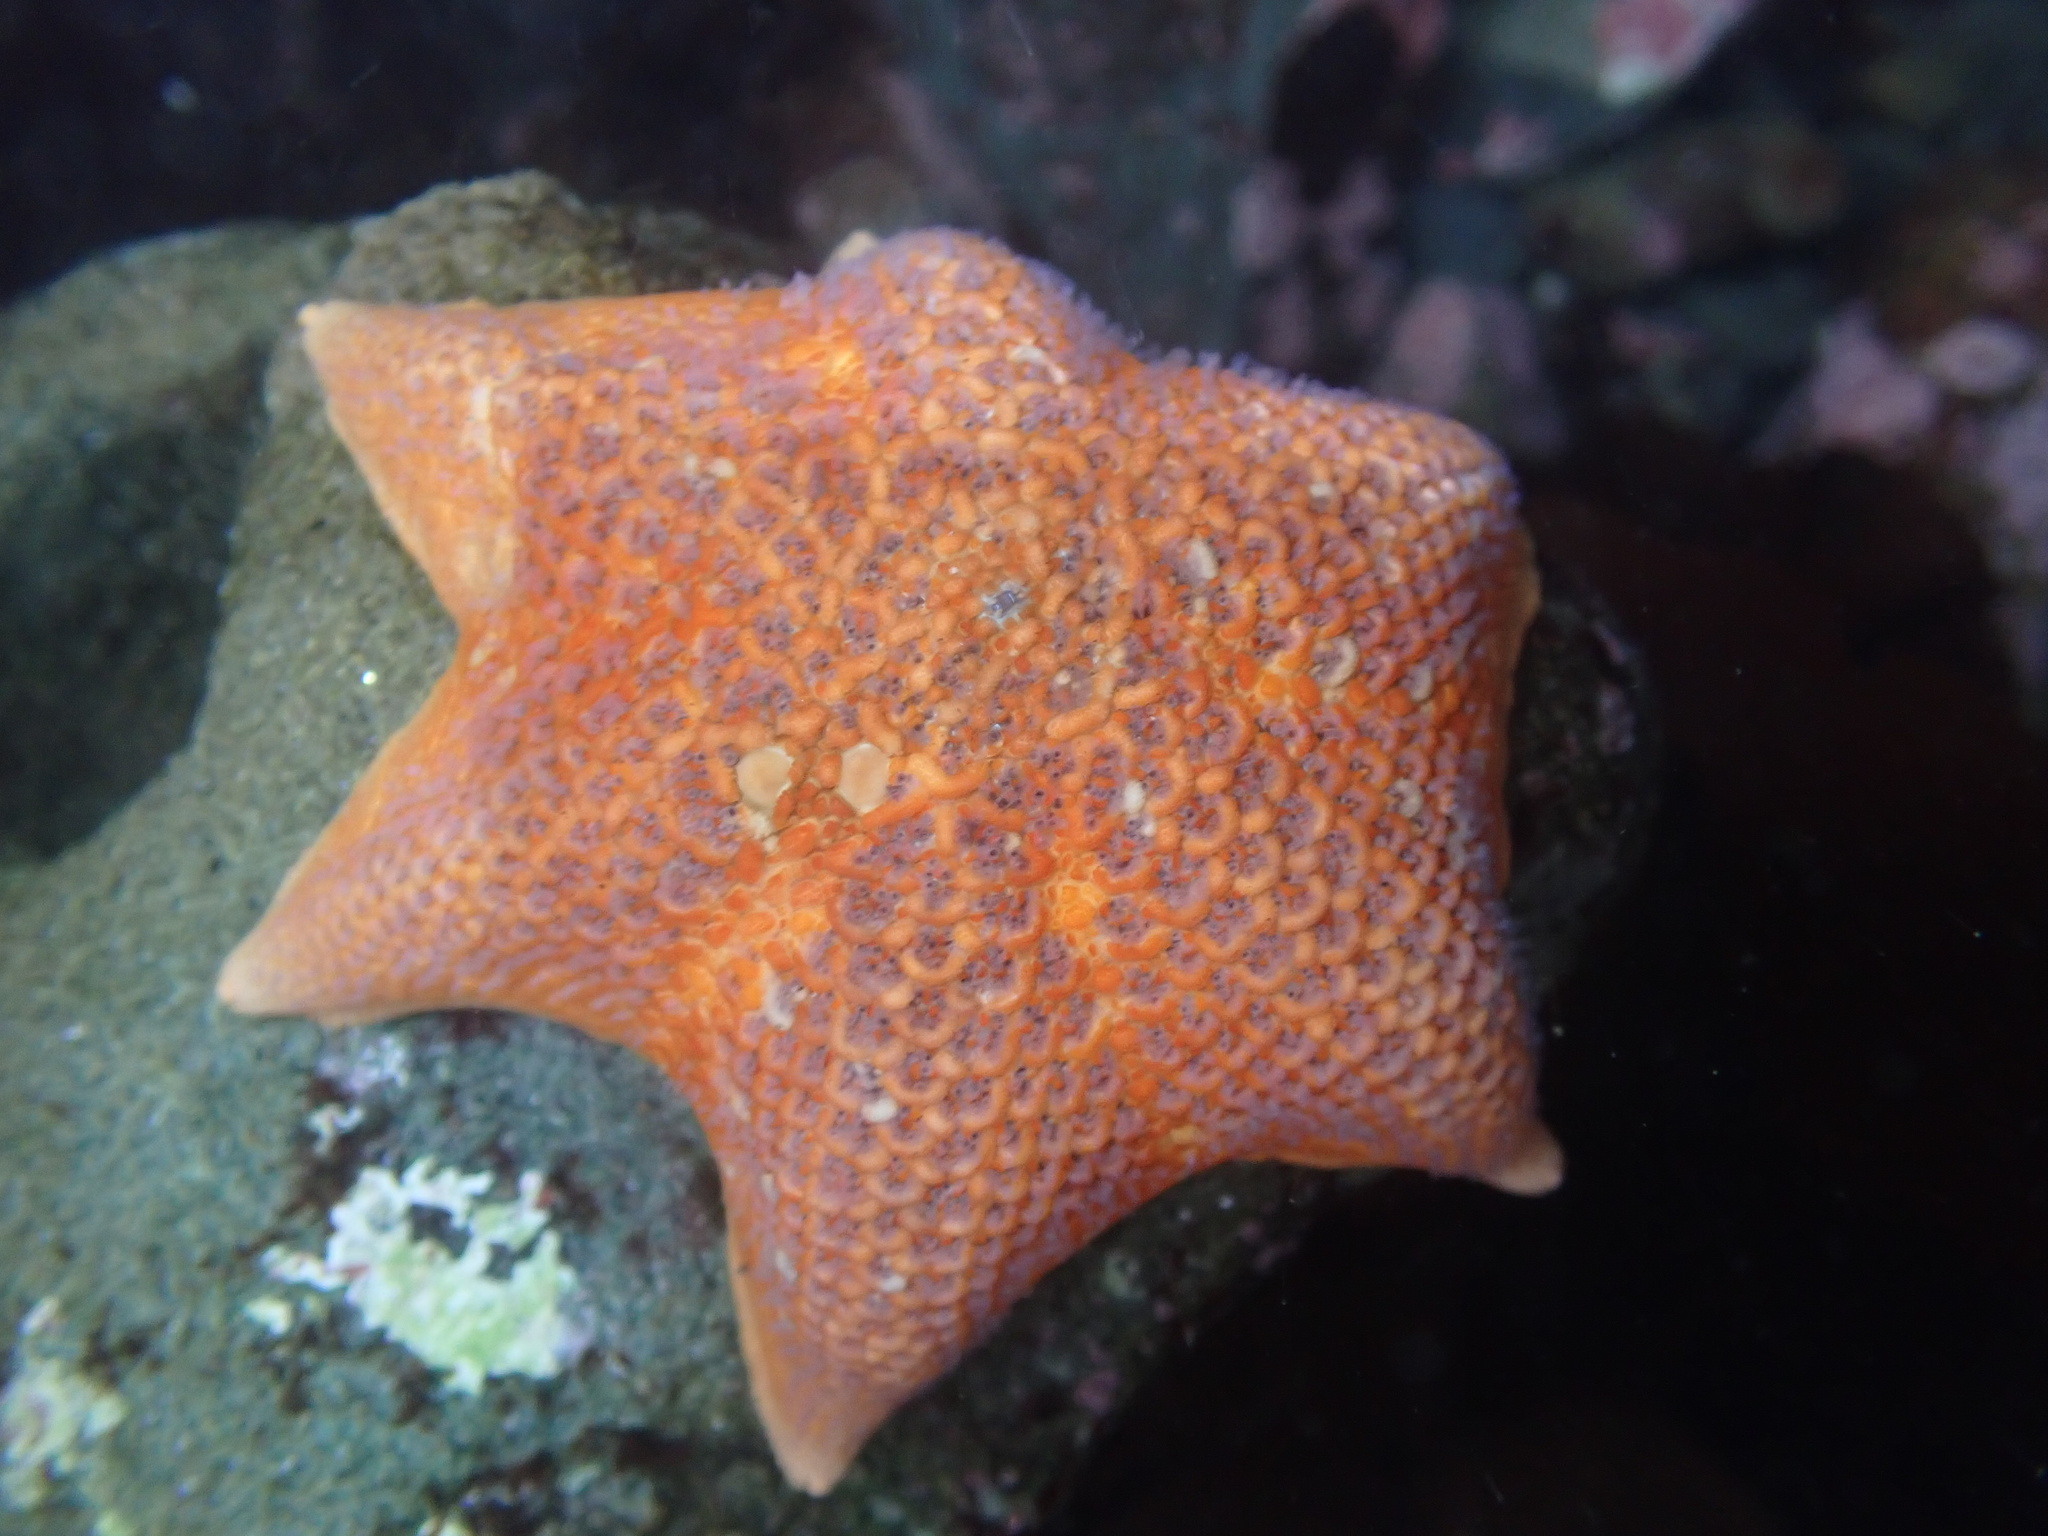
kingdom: Animalia
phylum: Echinodermata
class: Asteroidea
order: Valvatida
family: Asterinidae
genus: Patiria
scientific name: Patiria miniata
